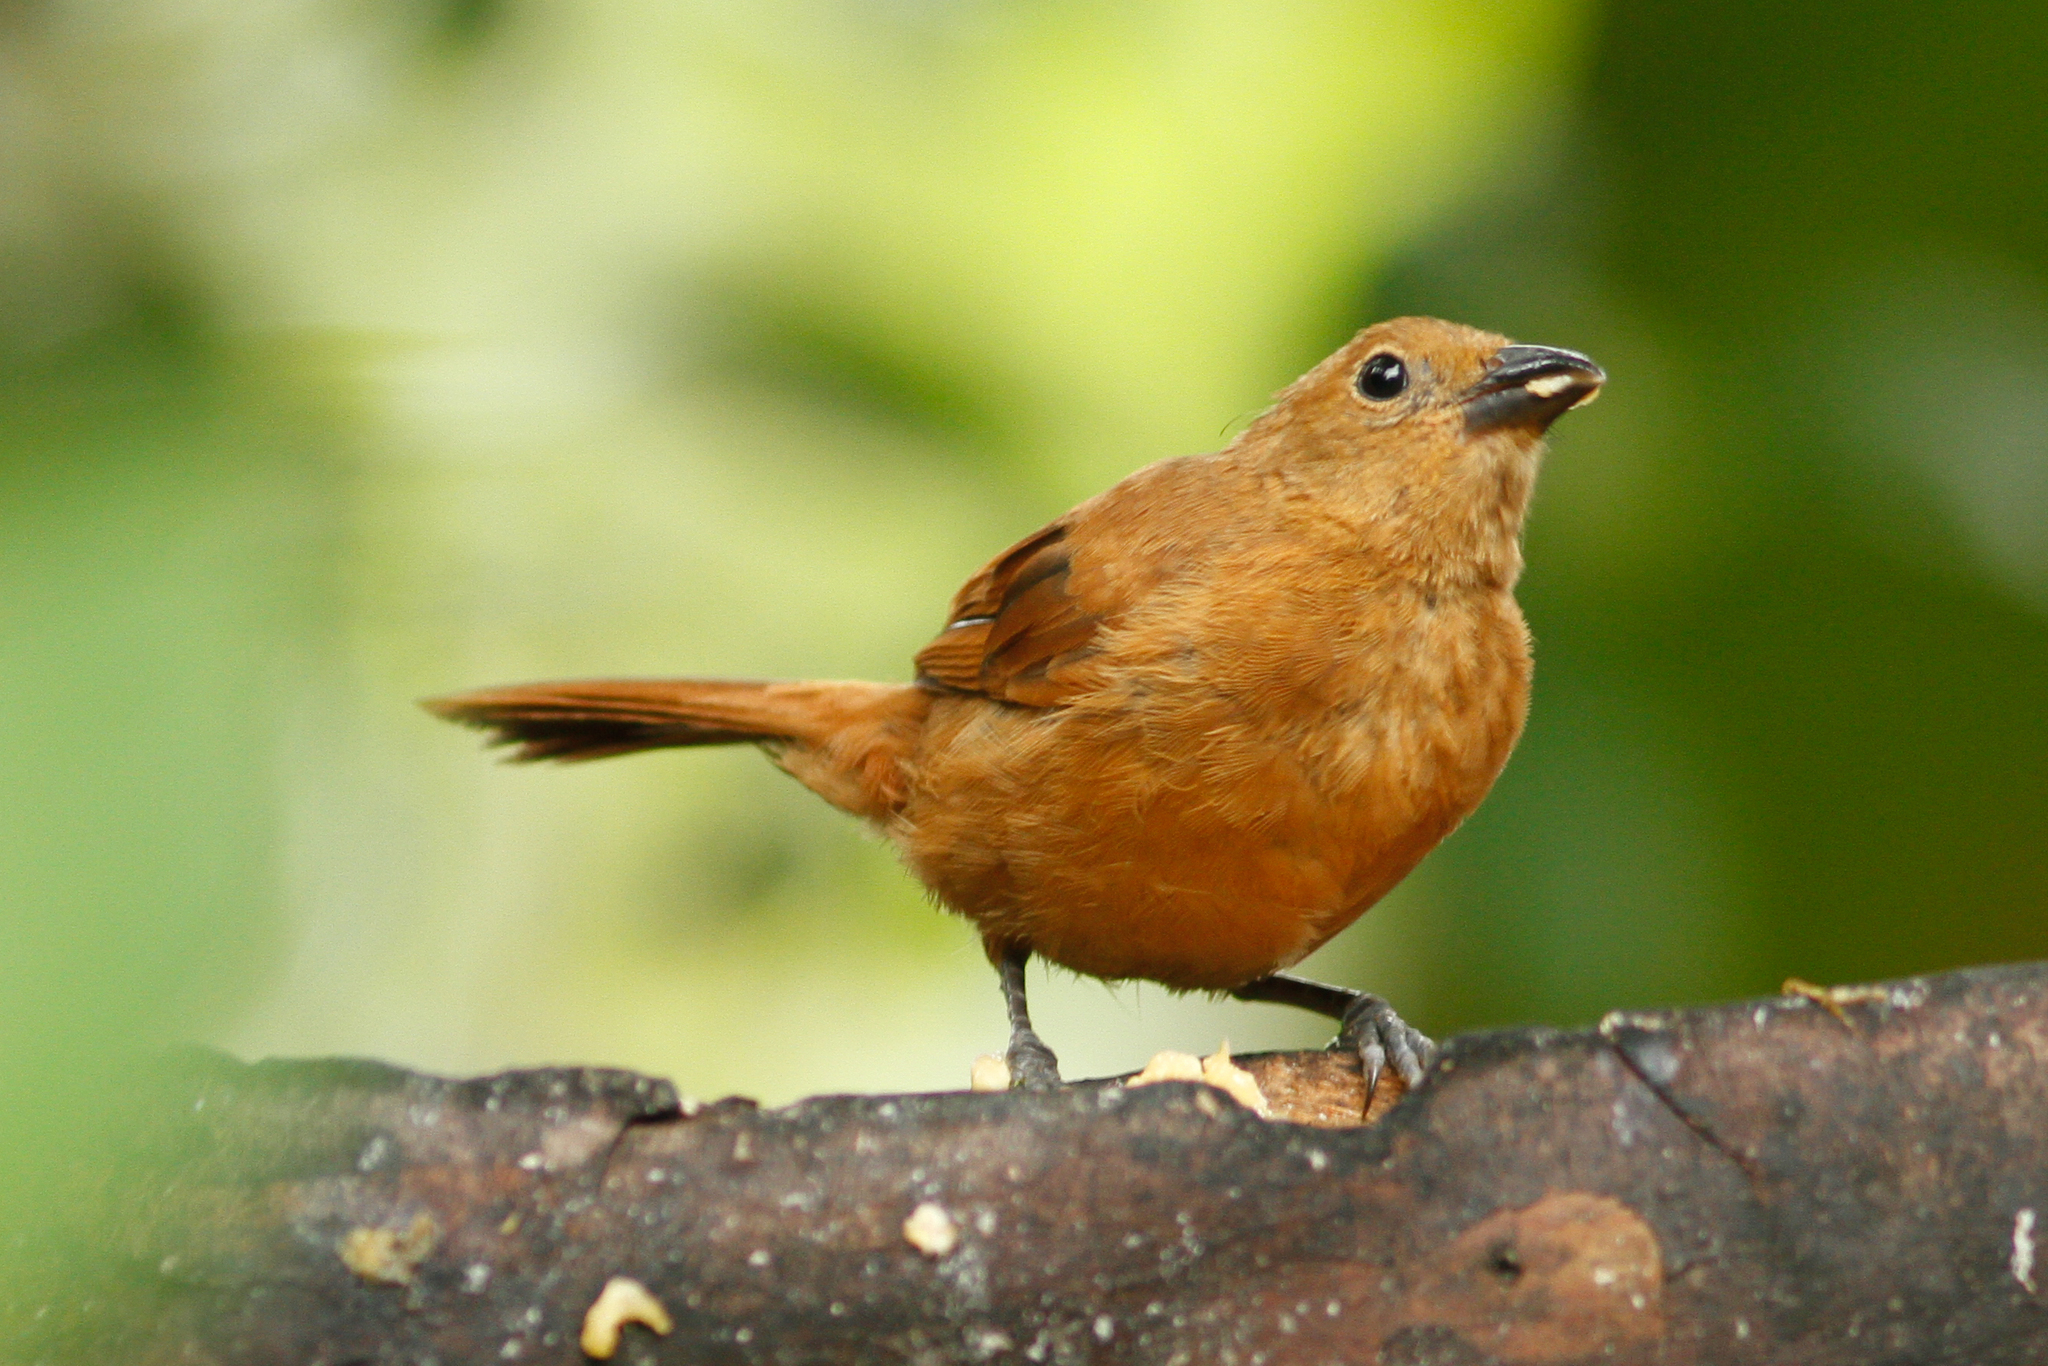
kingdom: Animalia
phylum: Chordata
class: Aves
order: Passeriformes
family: Thraupidae
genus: Tachyphonus
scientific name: Tachyphonus rufus
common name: White-lined tanager
